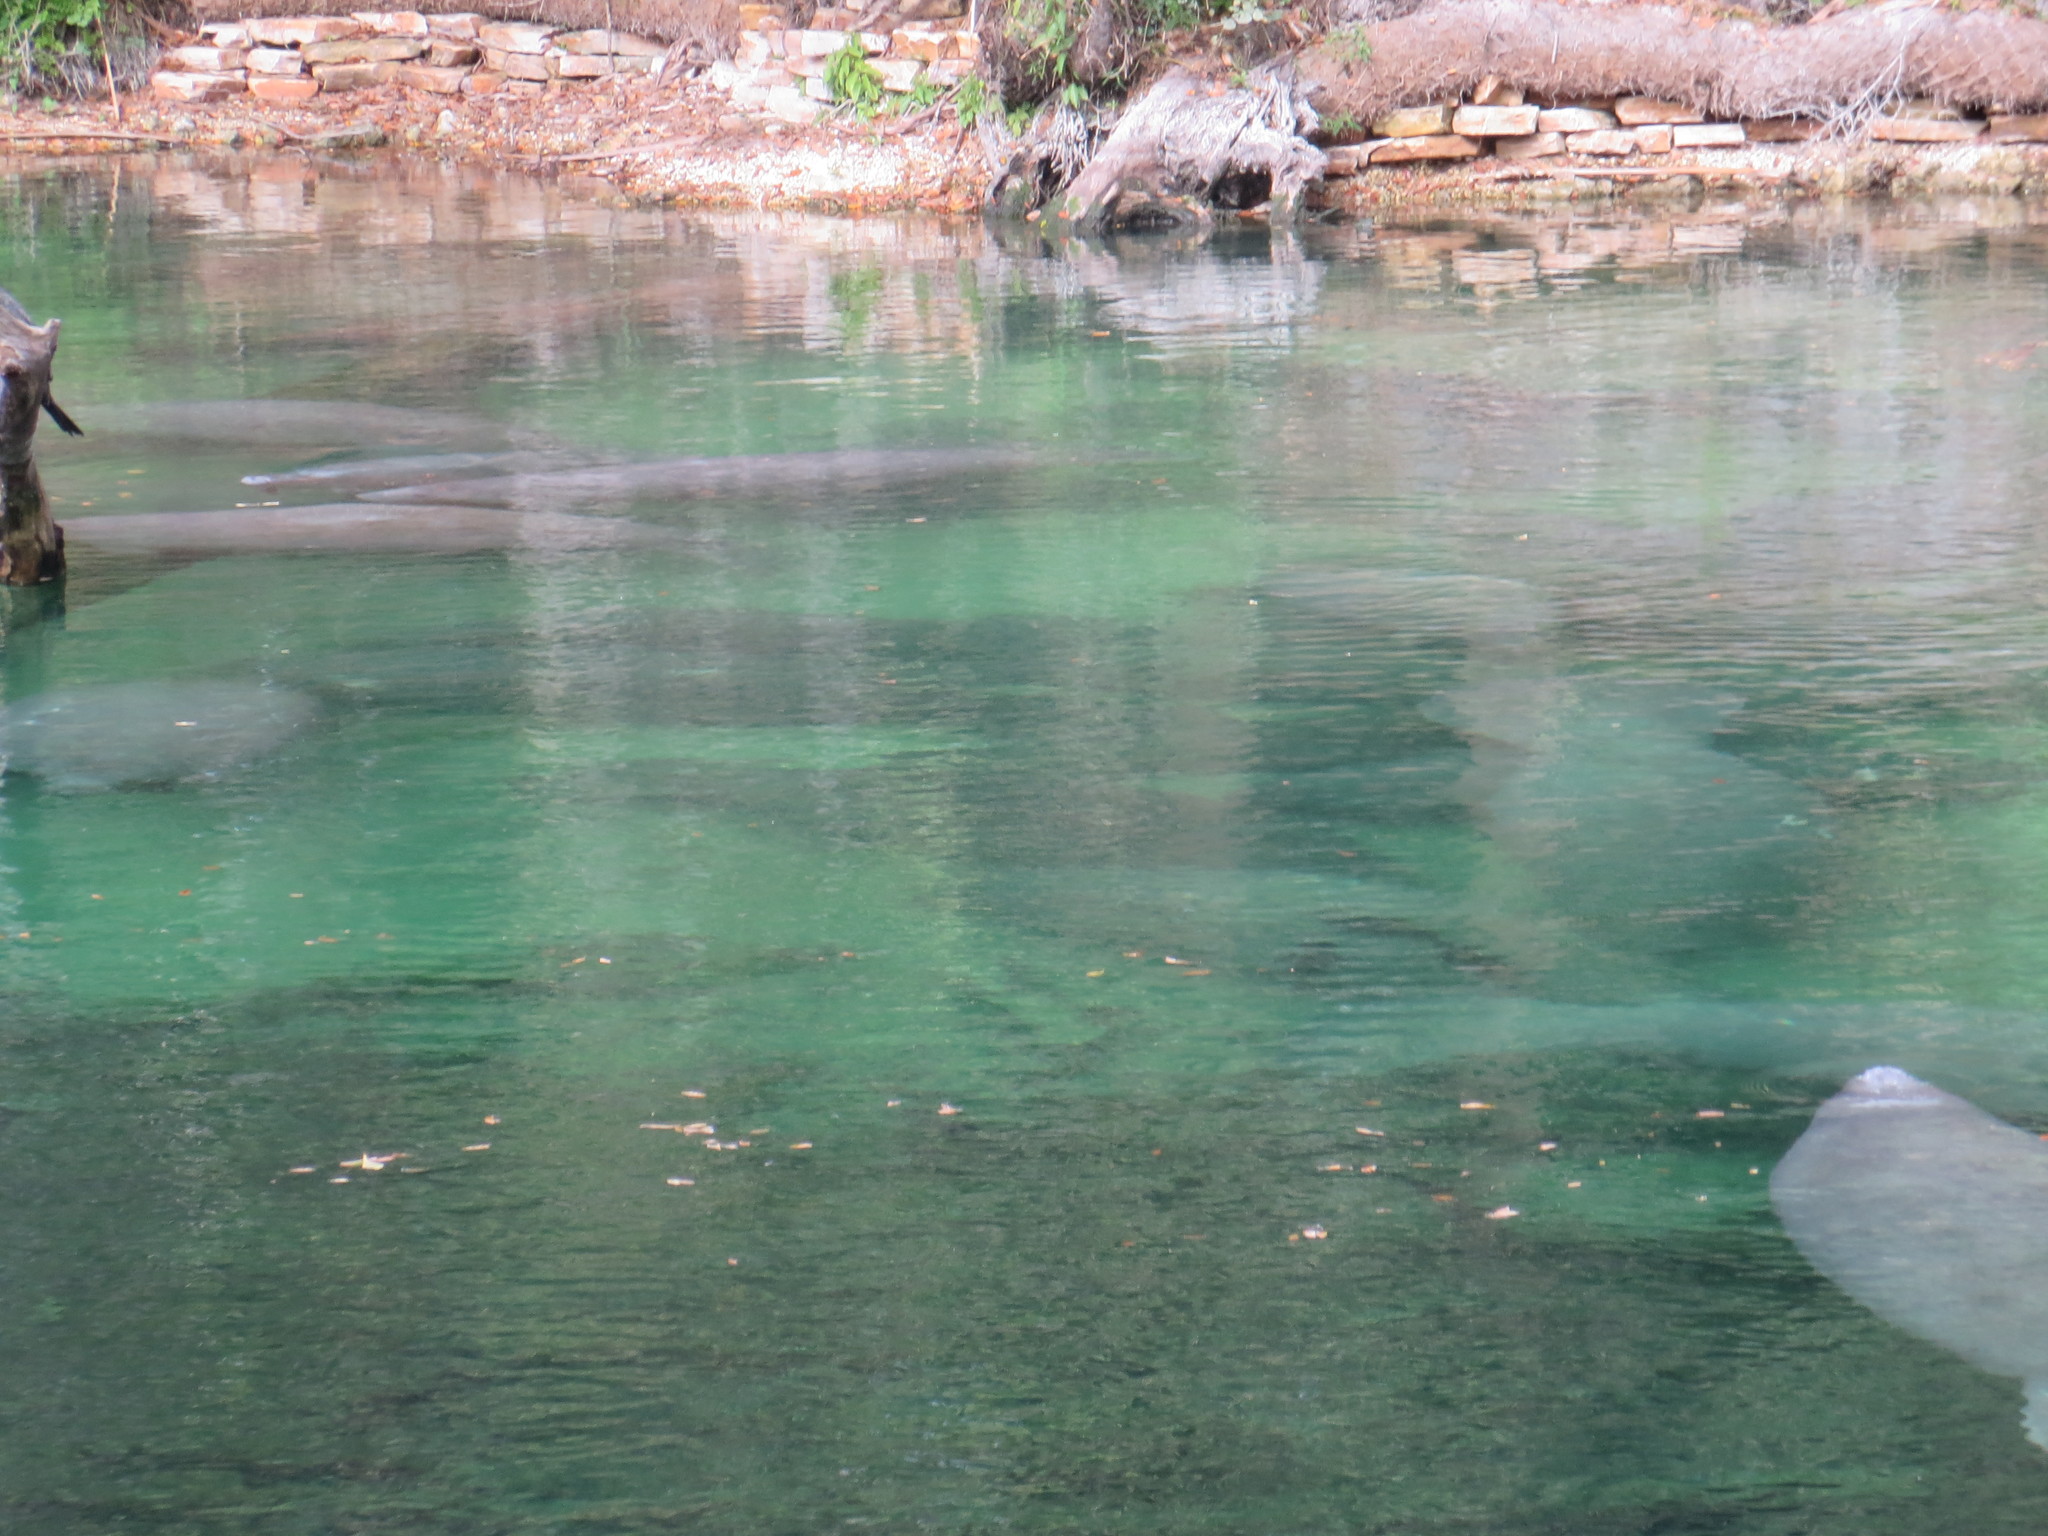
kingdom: Animalia
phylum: Chordata
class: Mammalia
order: Sirenia
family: Trichechidae
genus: Trichechus
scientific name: Trichechus manatus
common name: West indian manatee
